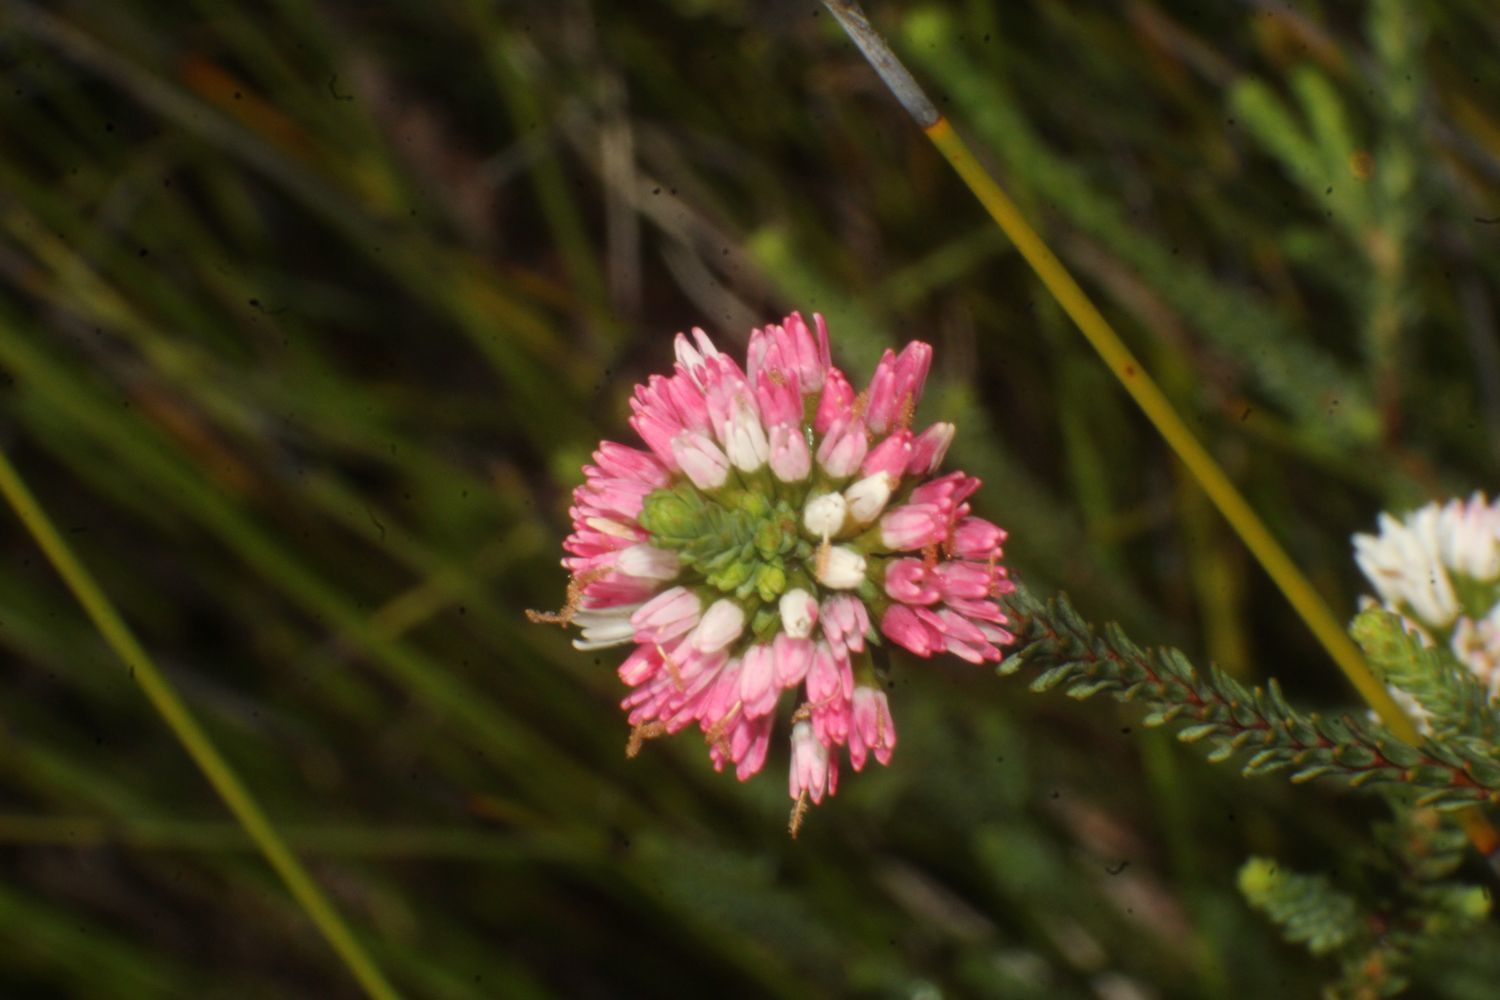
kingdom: Plantae
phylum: Tracheophyta
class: Magnoliopsida
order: Myrtales
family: Myrtaceae
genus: Darwinia
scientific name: Darwinia vestita
